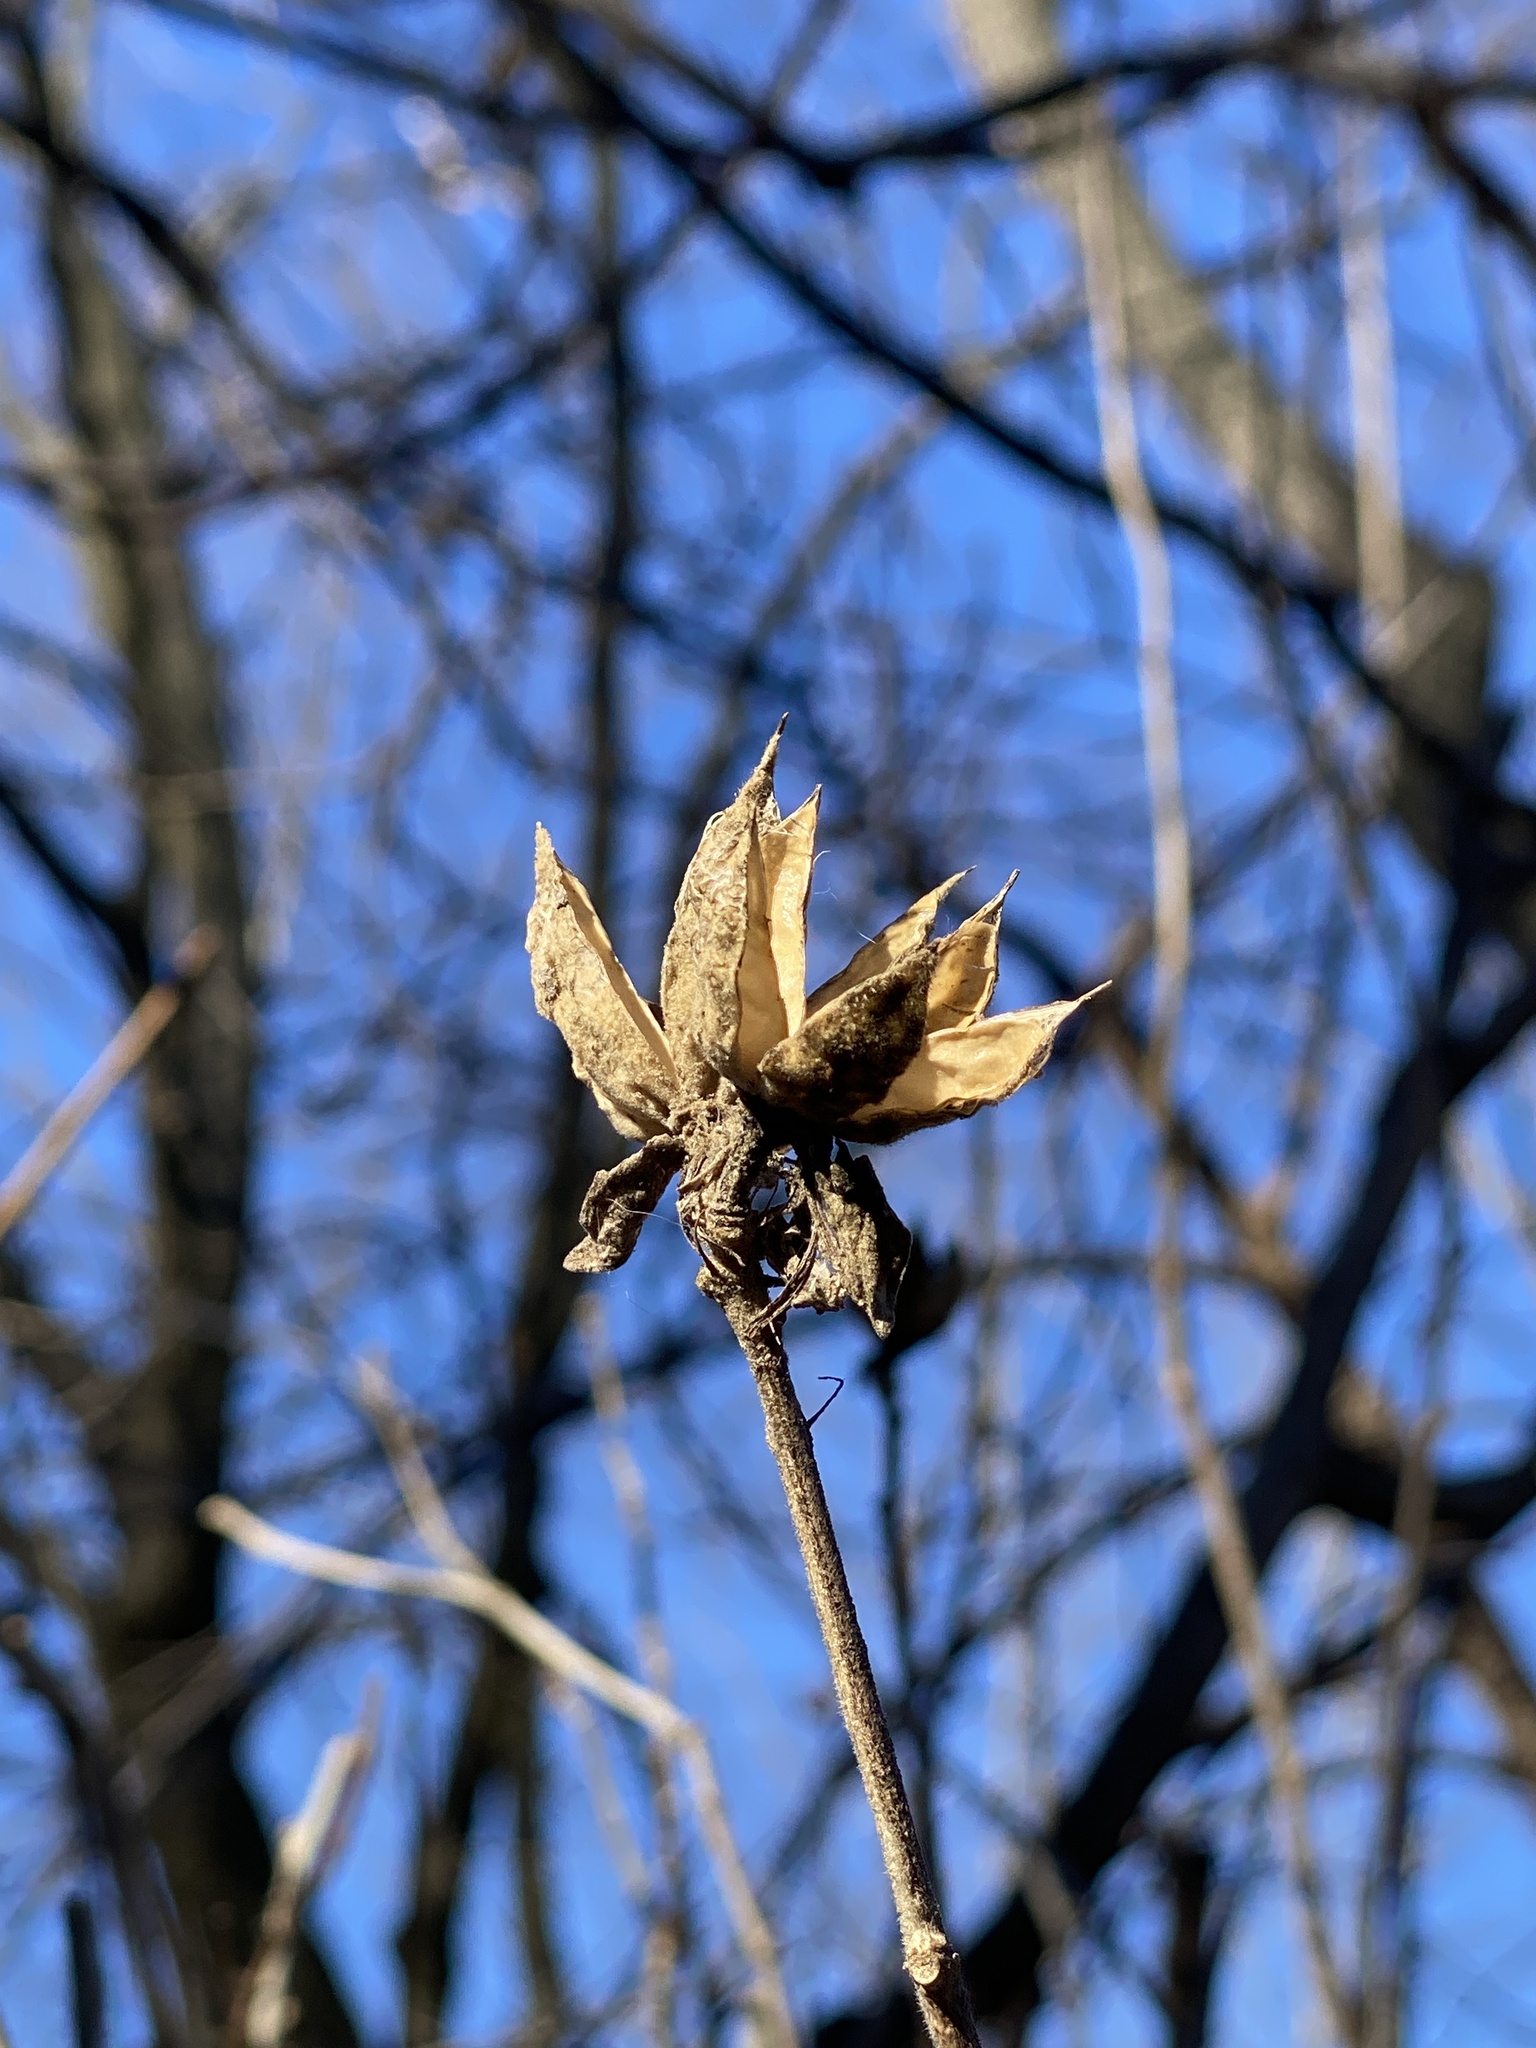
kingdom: Plantae
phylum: Tracheophyta
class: Magnoliopsida
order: Malvales
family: Malvaceae
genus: Hibiscus
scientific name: Hibiscus syriacus
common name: Syrian ketmia
